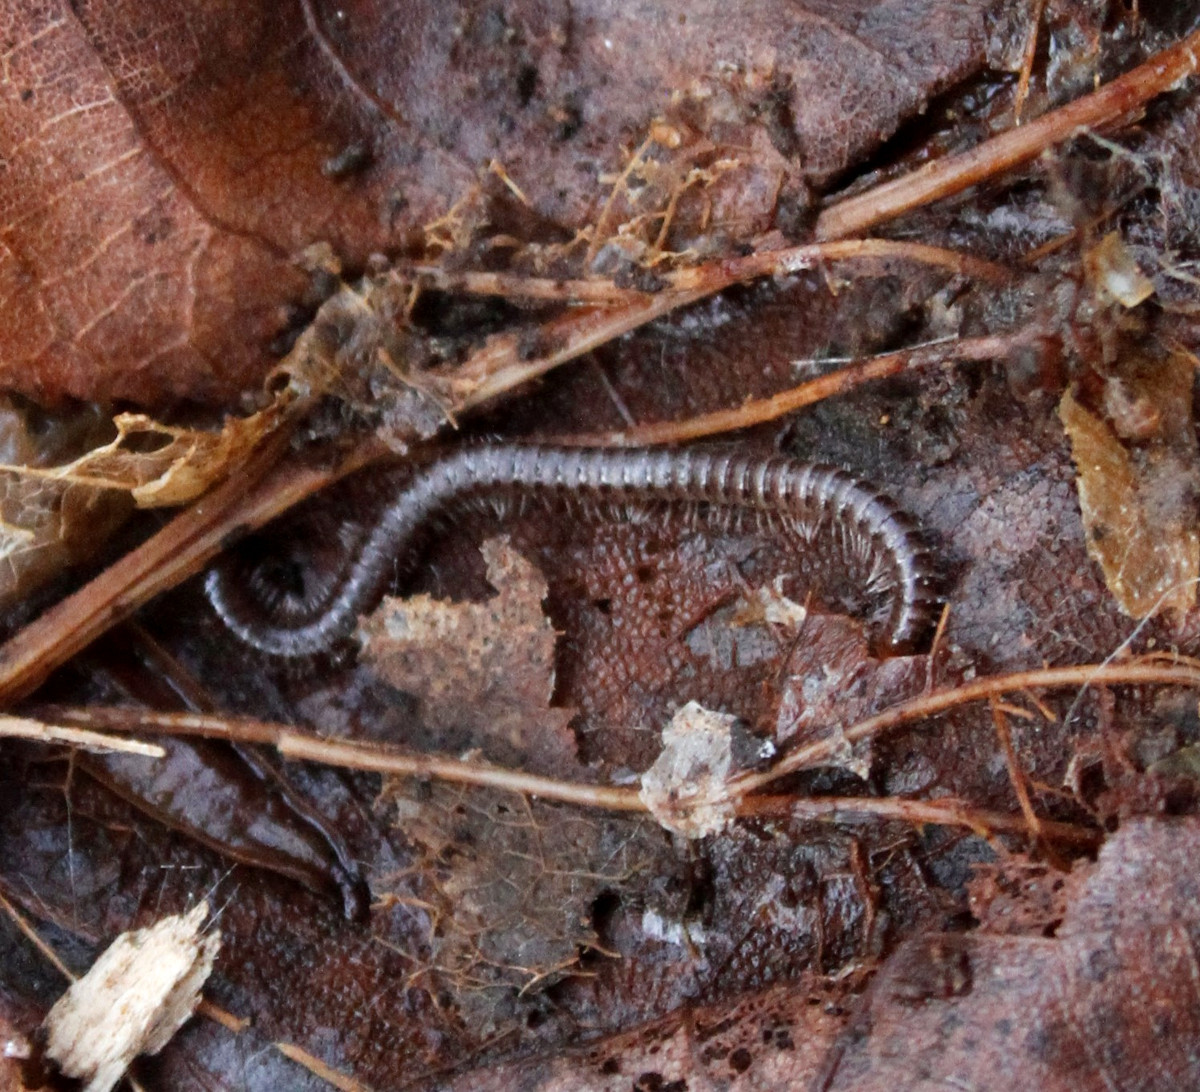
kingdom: Animalia
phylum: Arthropoda
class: Diplopoda
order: Julida
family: Julidae
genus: Ophyiulus
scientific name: Ophyiulus pilosus
